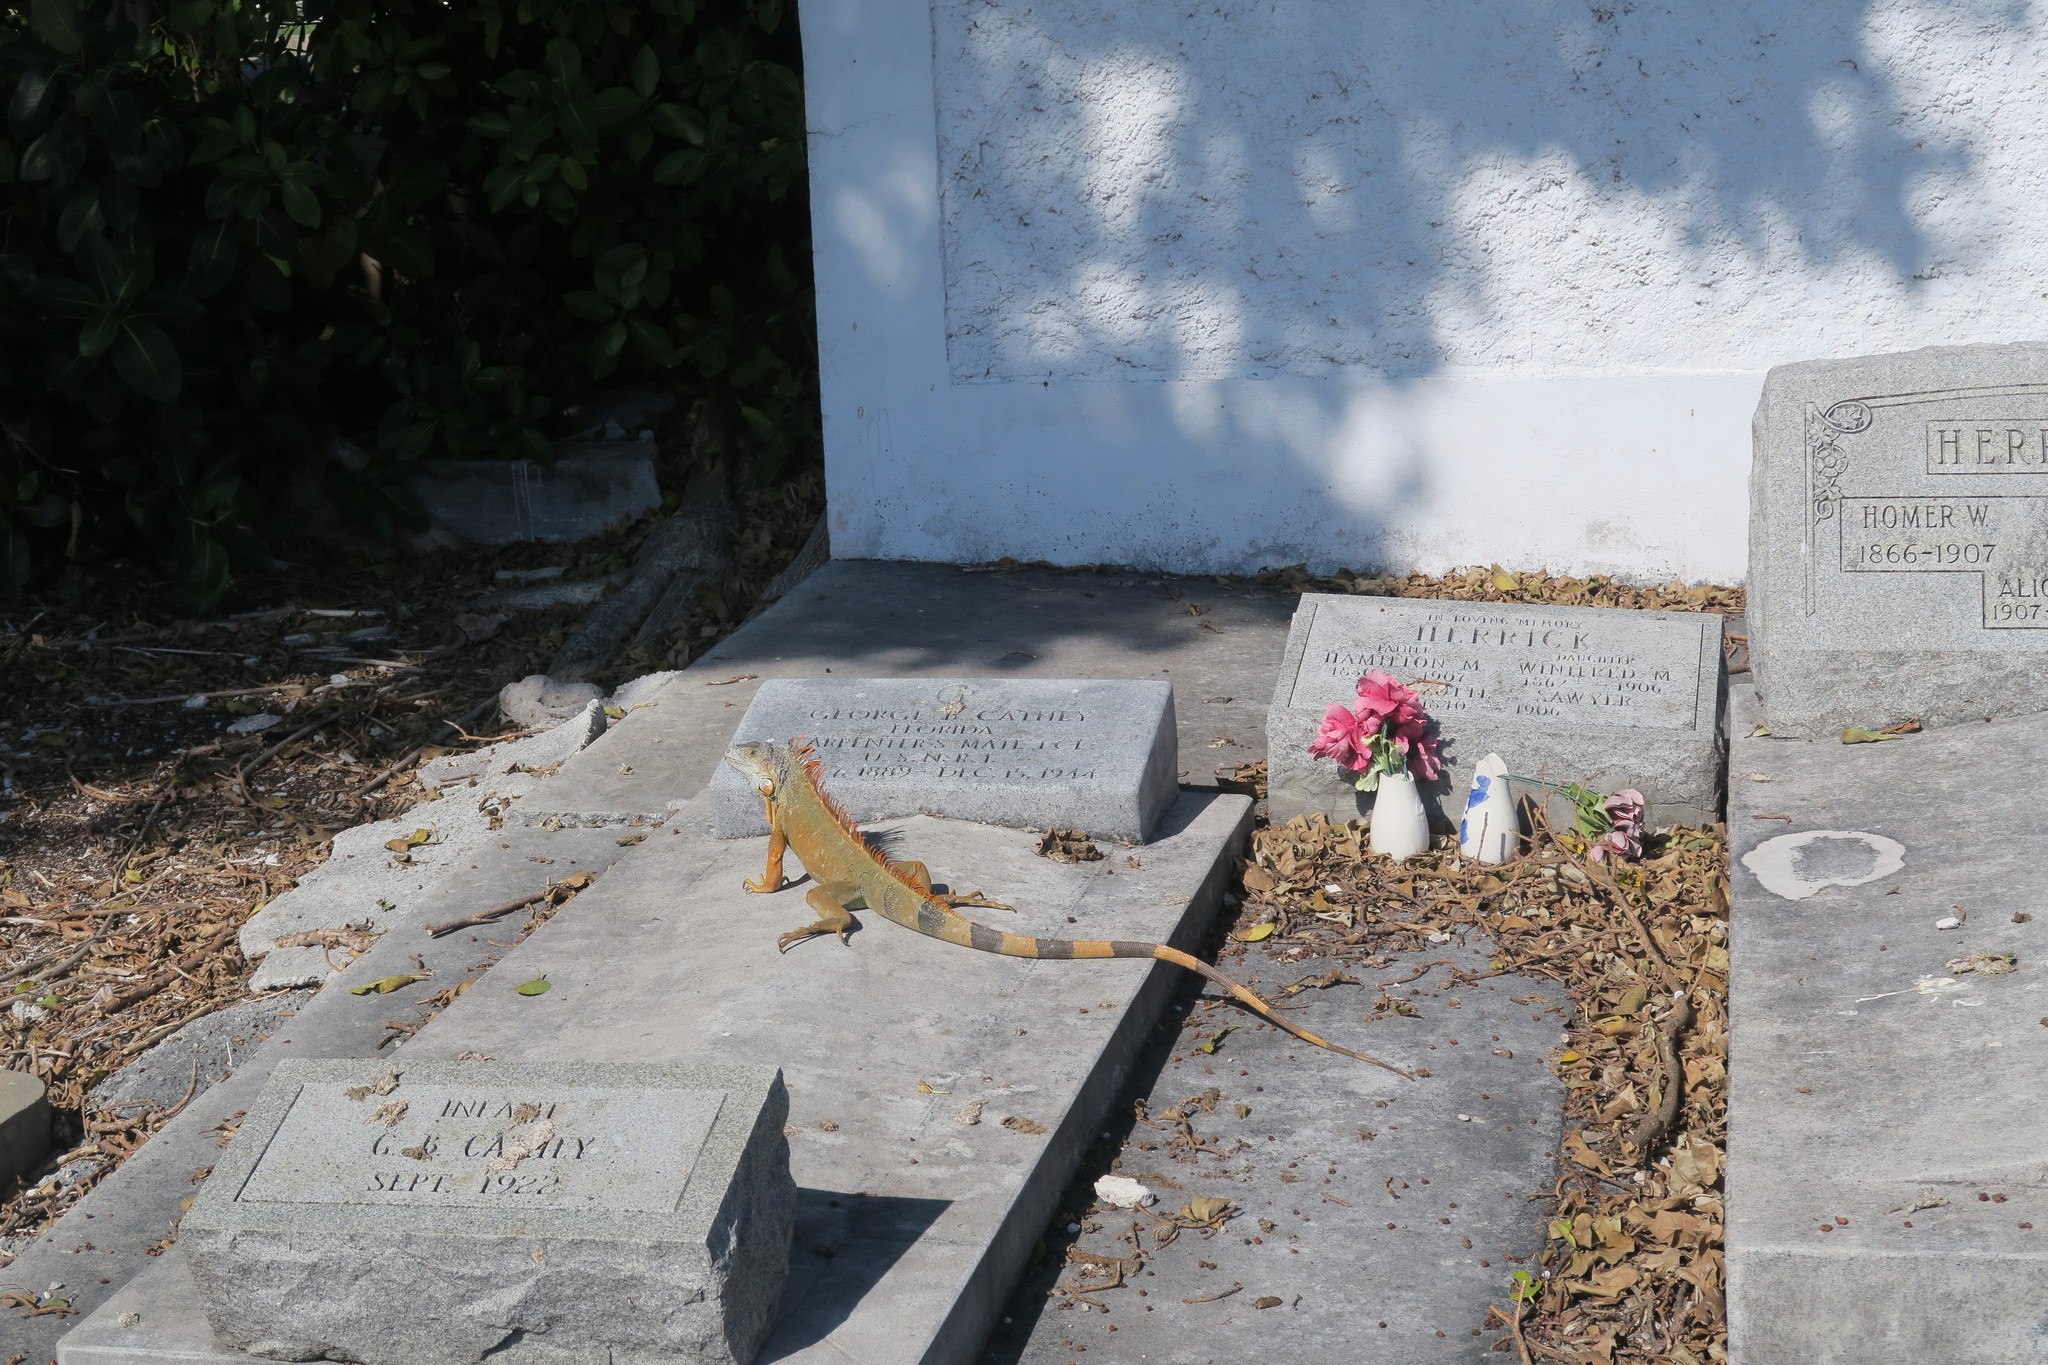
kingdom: Animalia
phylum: Chordata
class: Squamata
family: Iguanidae
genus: Iguana
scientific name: Iguana iguana
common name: Green iguana
